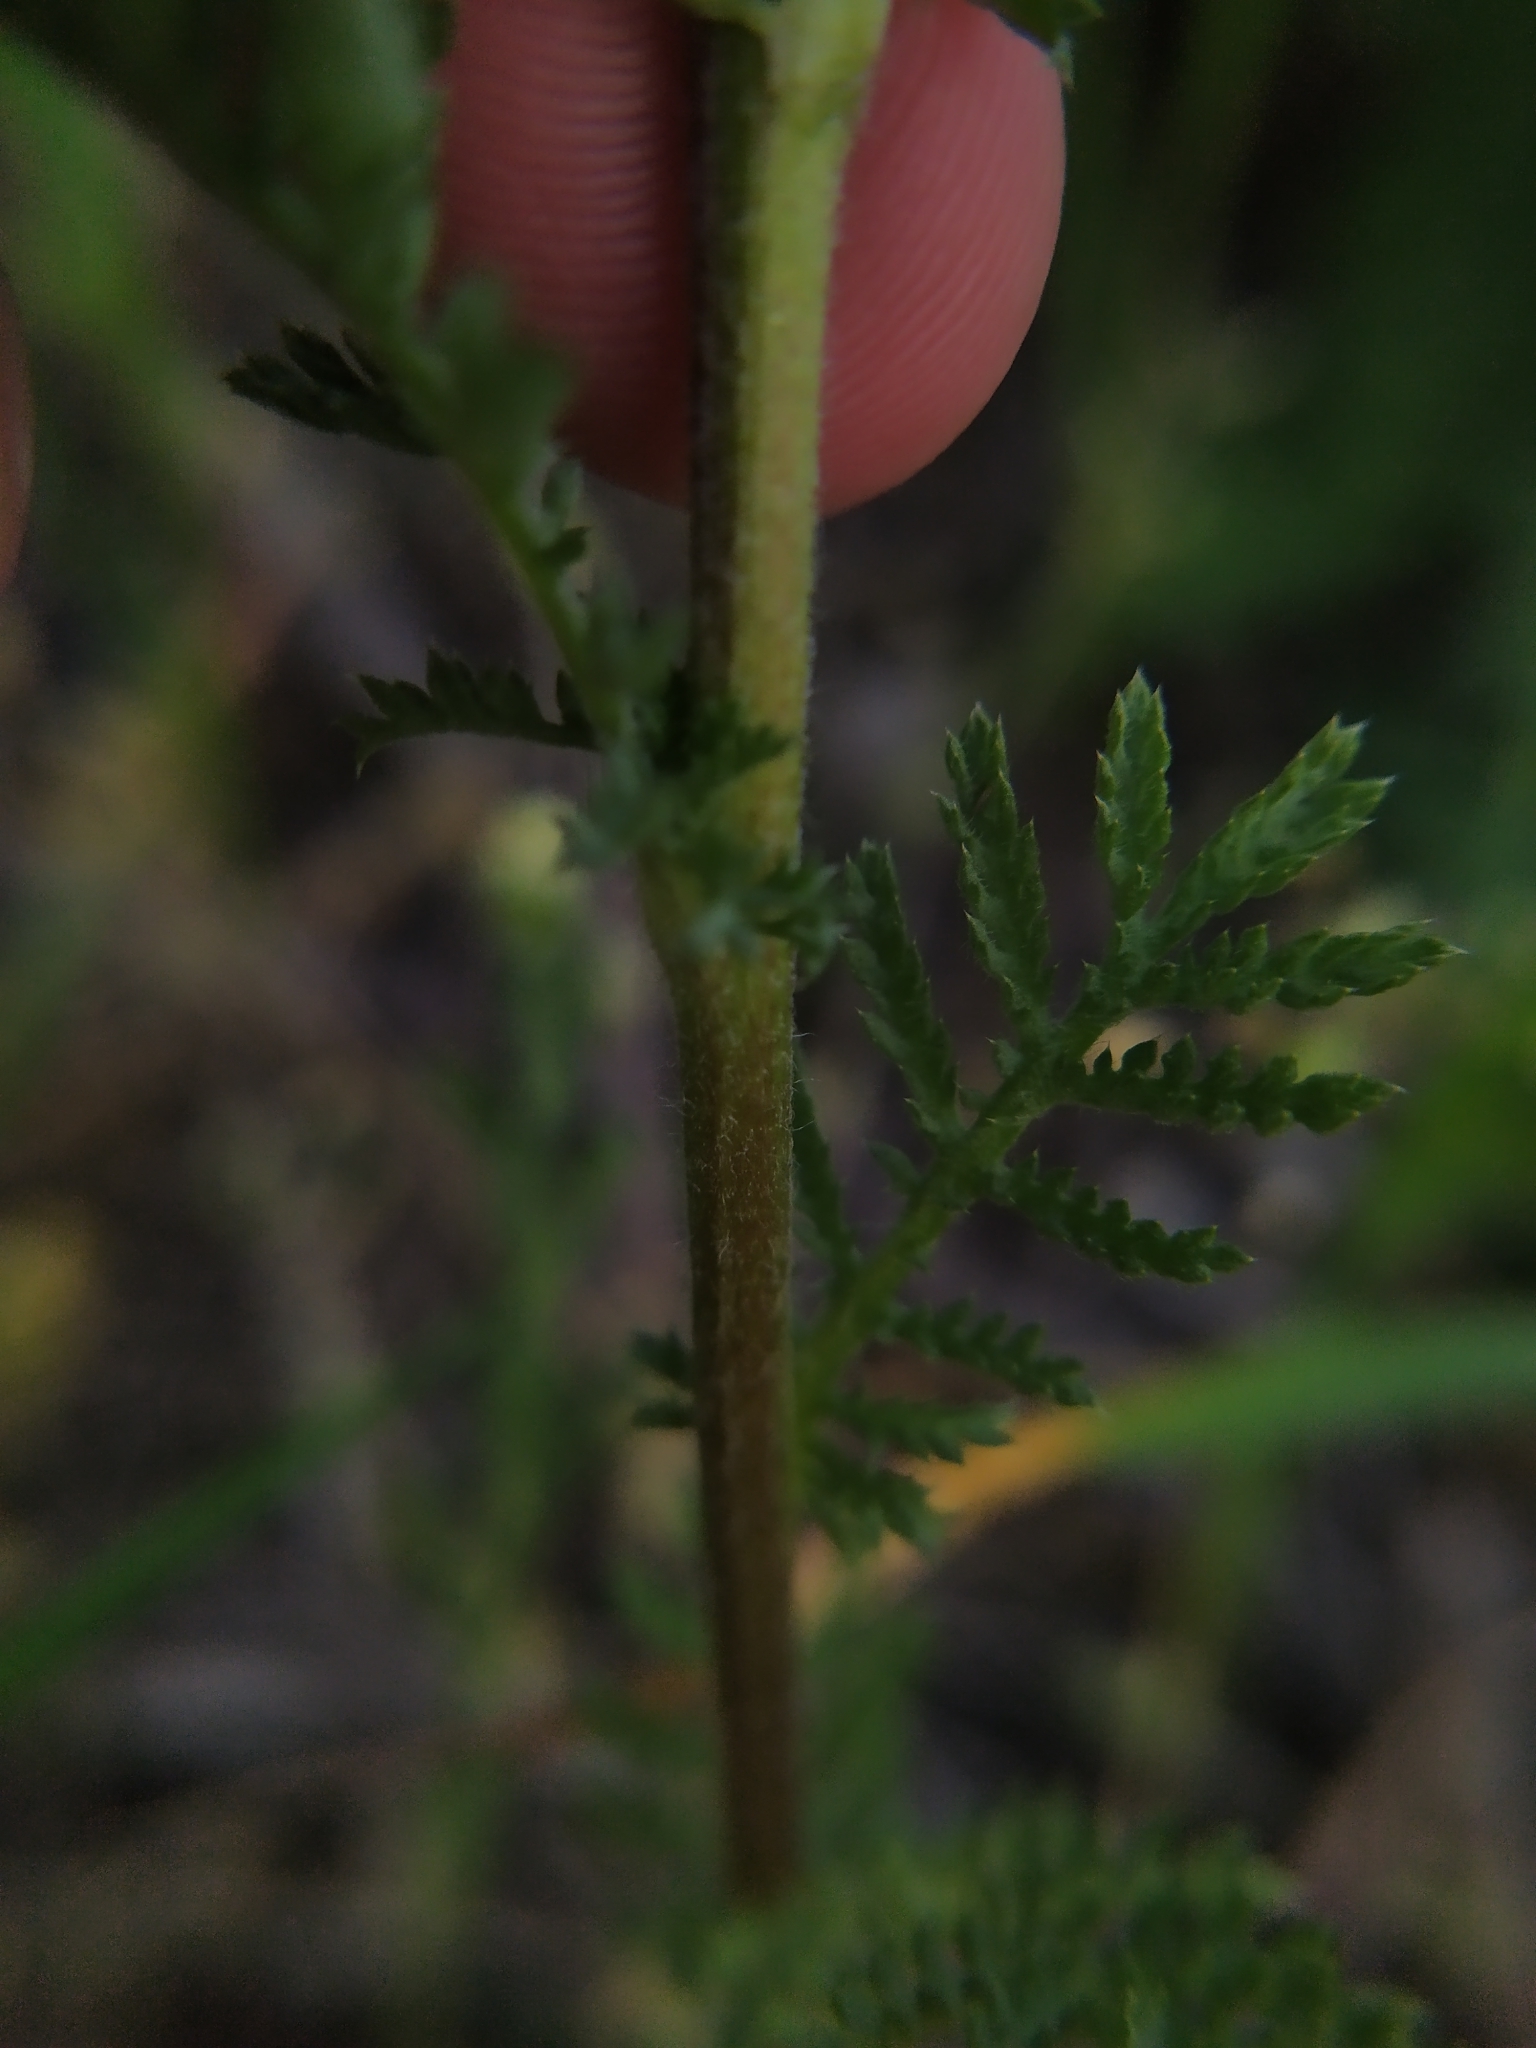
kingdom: Plantae
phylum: Tracheophyta
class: Magnoliopsida
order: Asterales
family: Asteraceae
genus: Cota
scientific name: Cota austriaca
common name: Austrian chamomile
